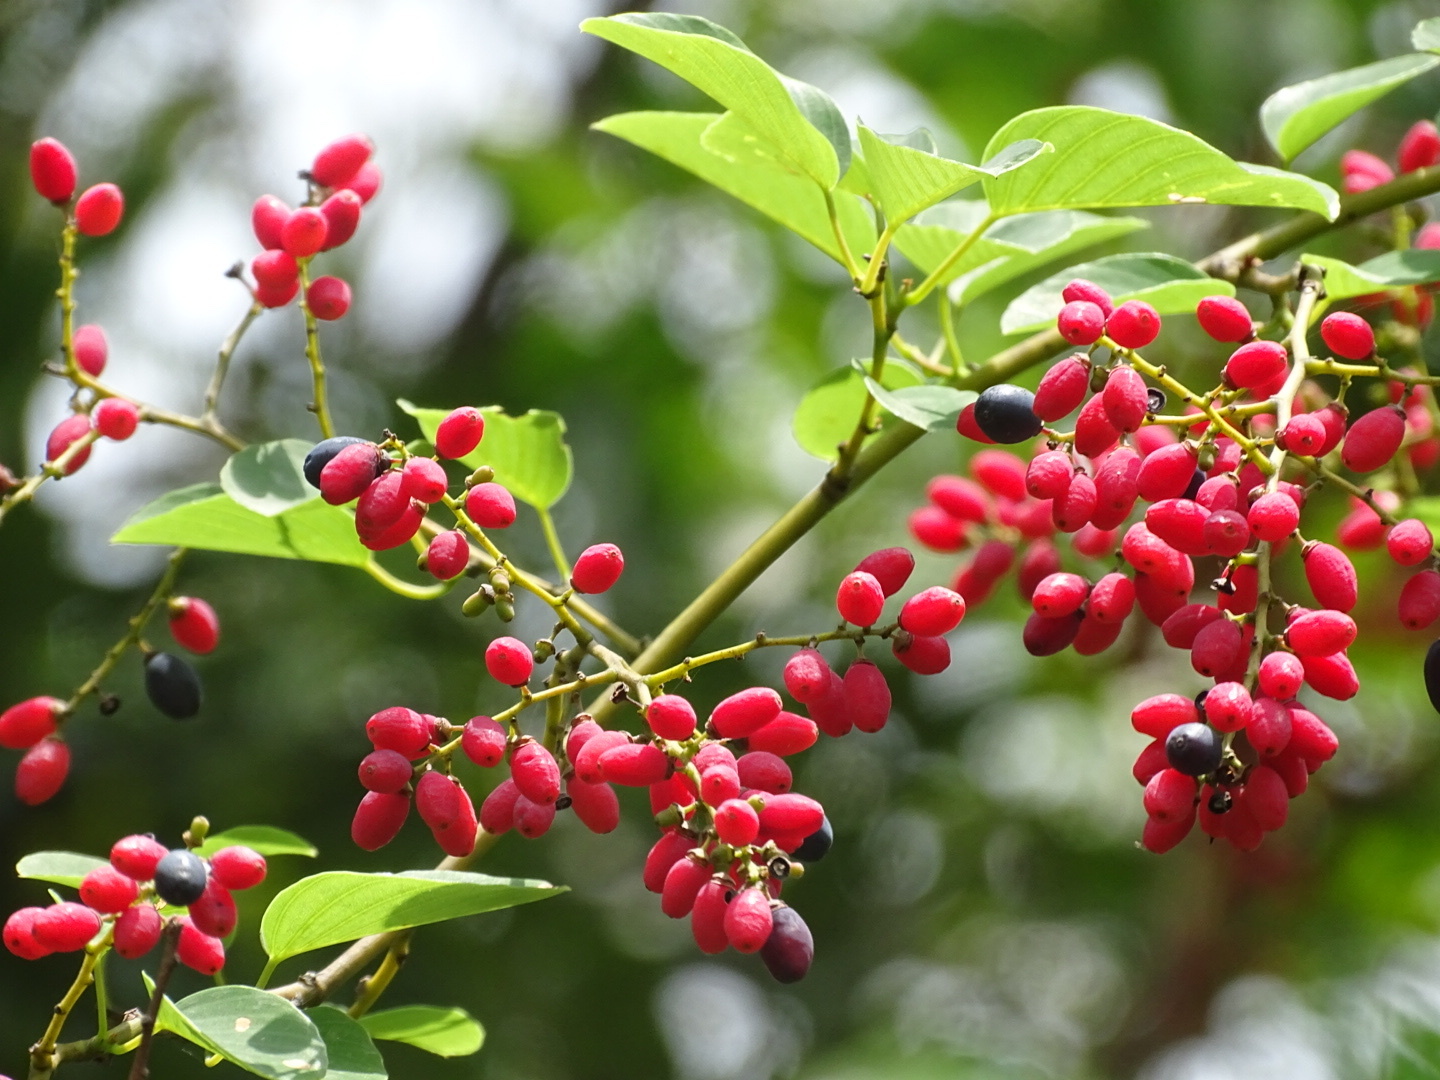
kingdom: Plantae
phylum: Tracheophyta
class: Magnoliopsida
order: Rosales
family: Rhamnaceae
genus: Berchemia
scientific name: Berchemia floribunda
